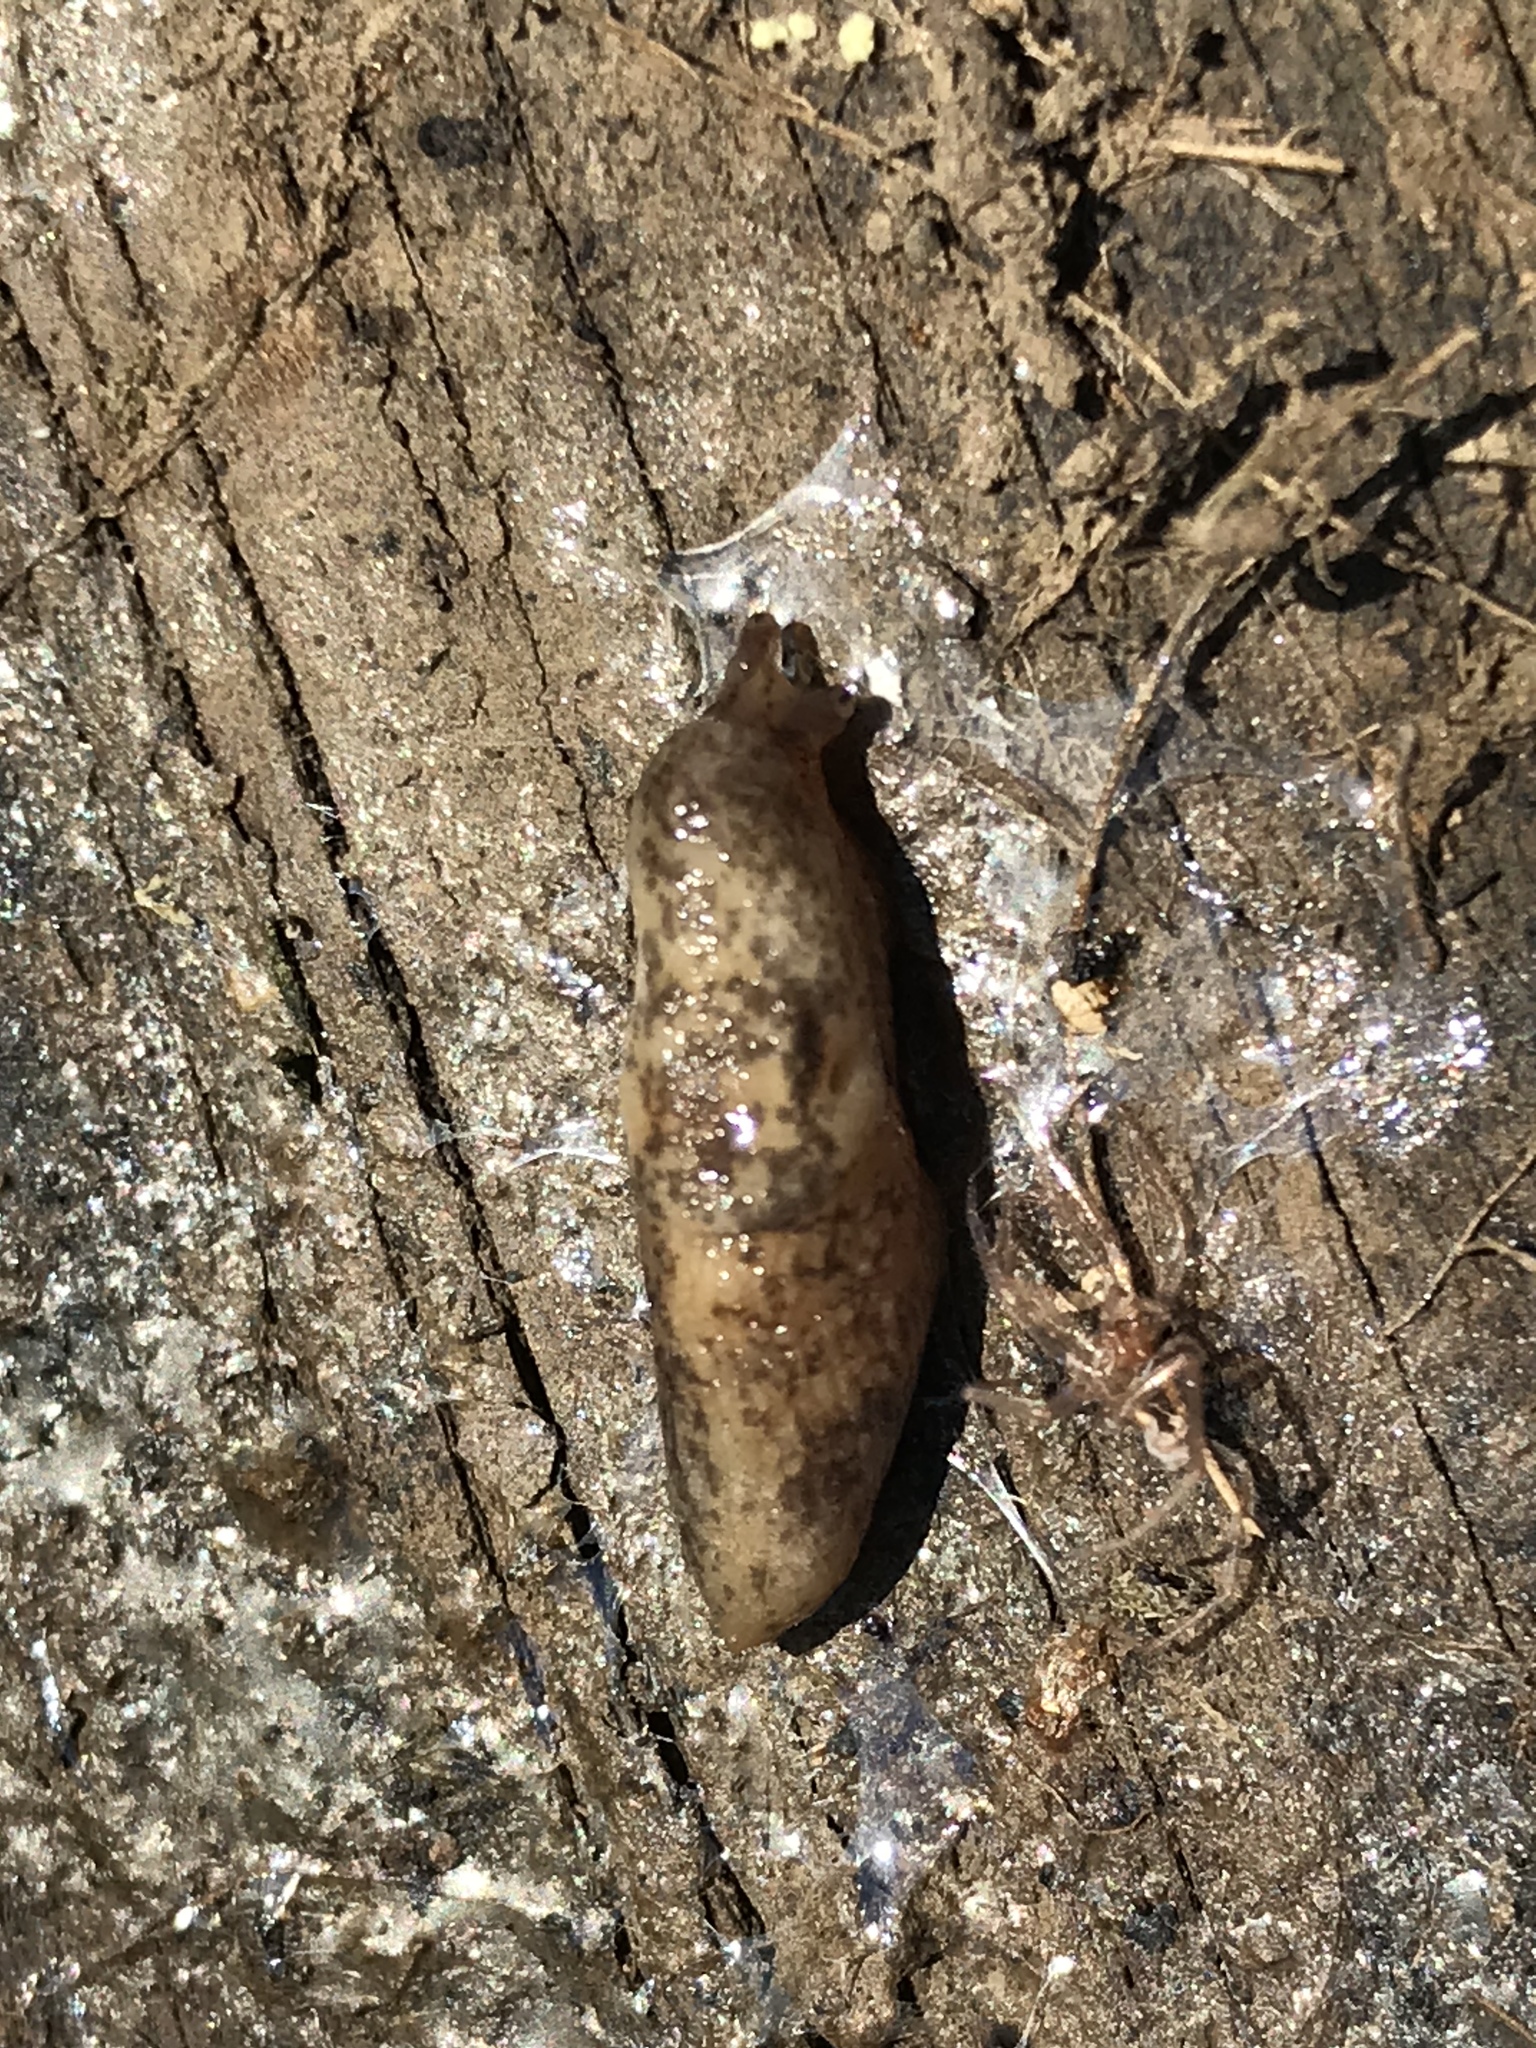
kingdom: Animalia
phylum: Mollusca
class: Gastropoda
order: Stylommatophora
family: Agriolimacidae
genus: Deroceras
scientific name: Deroceras reticulatum
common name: Gray field slug
